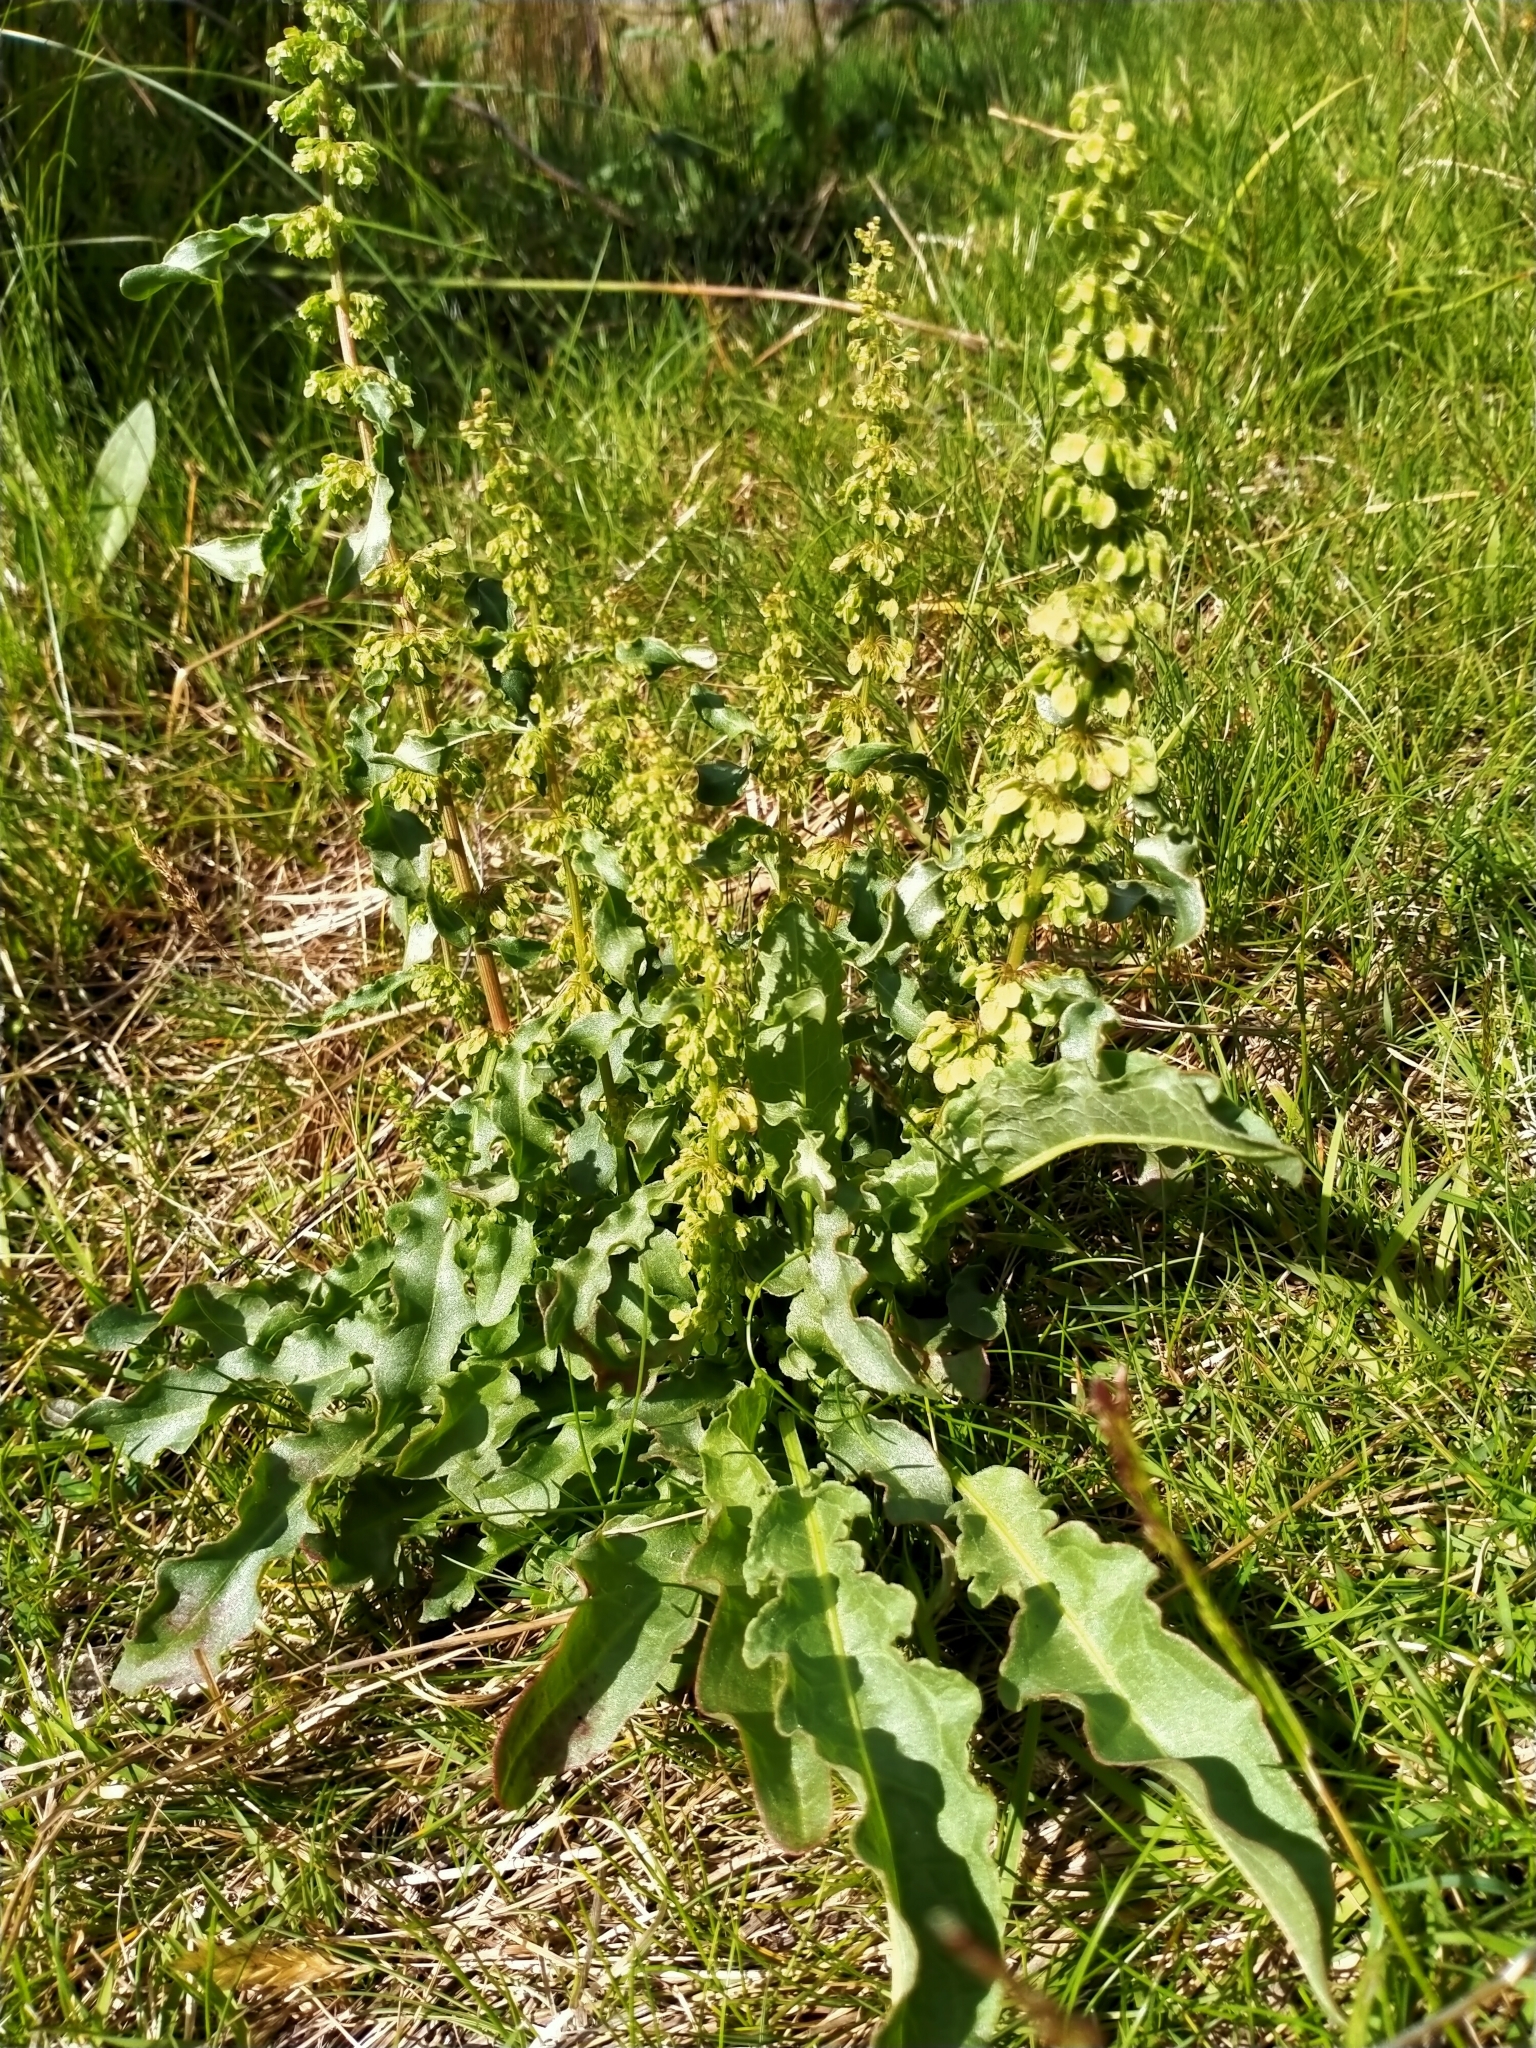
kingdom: Plantae
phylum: Tracheophyta
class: Magnoliopsida
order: Caryophyllales
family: Polygonaceae
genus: Rumex
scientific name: Rumex crispus
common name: Curled dock
